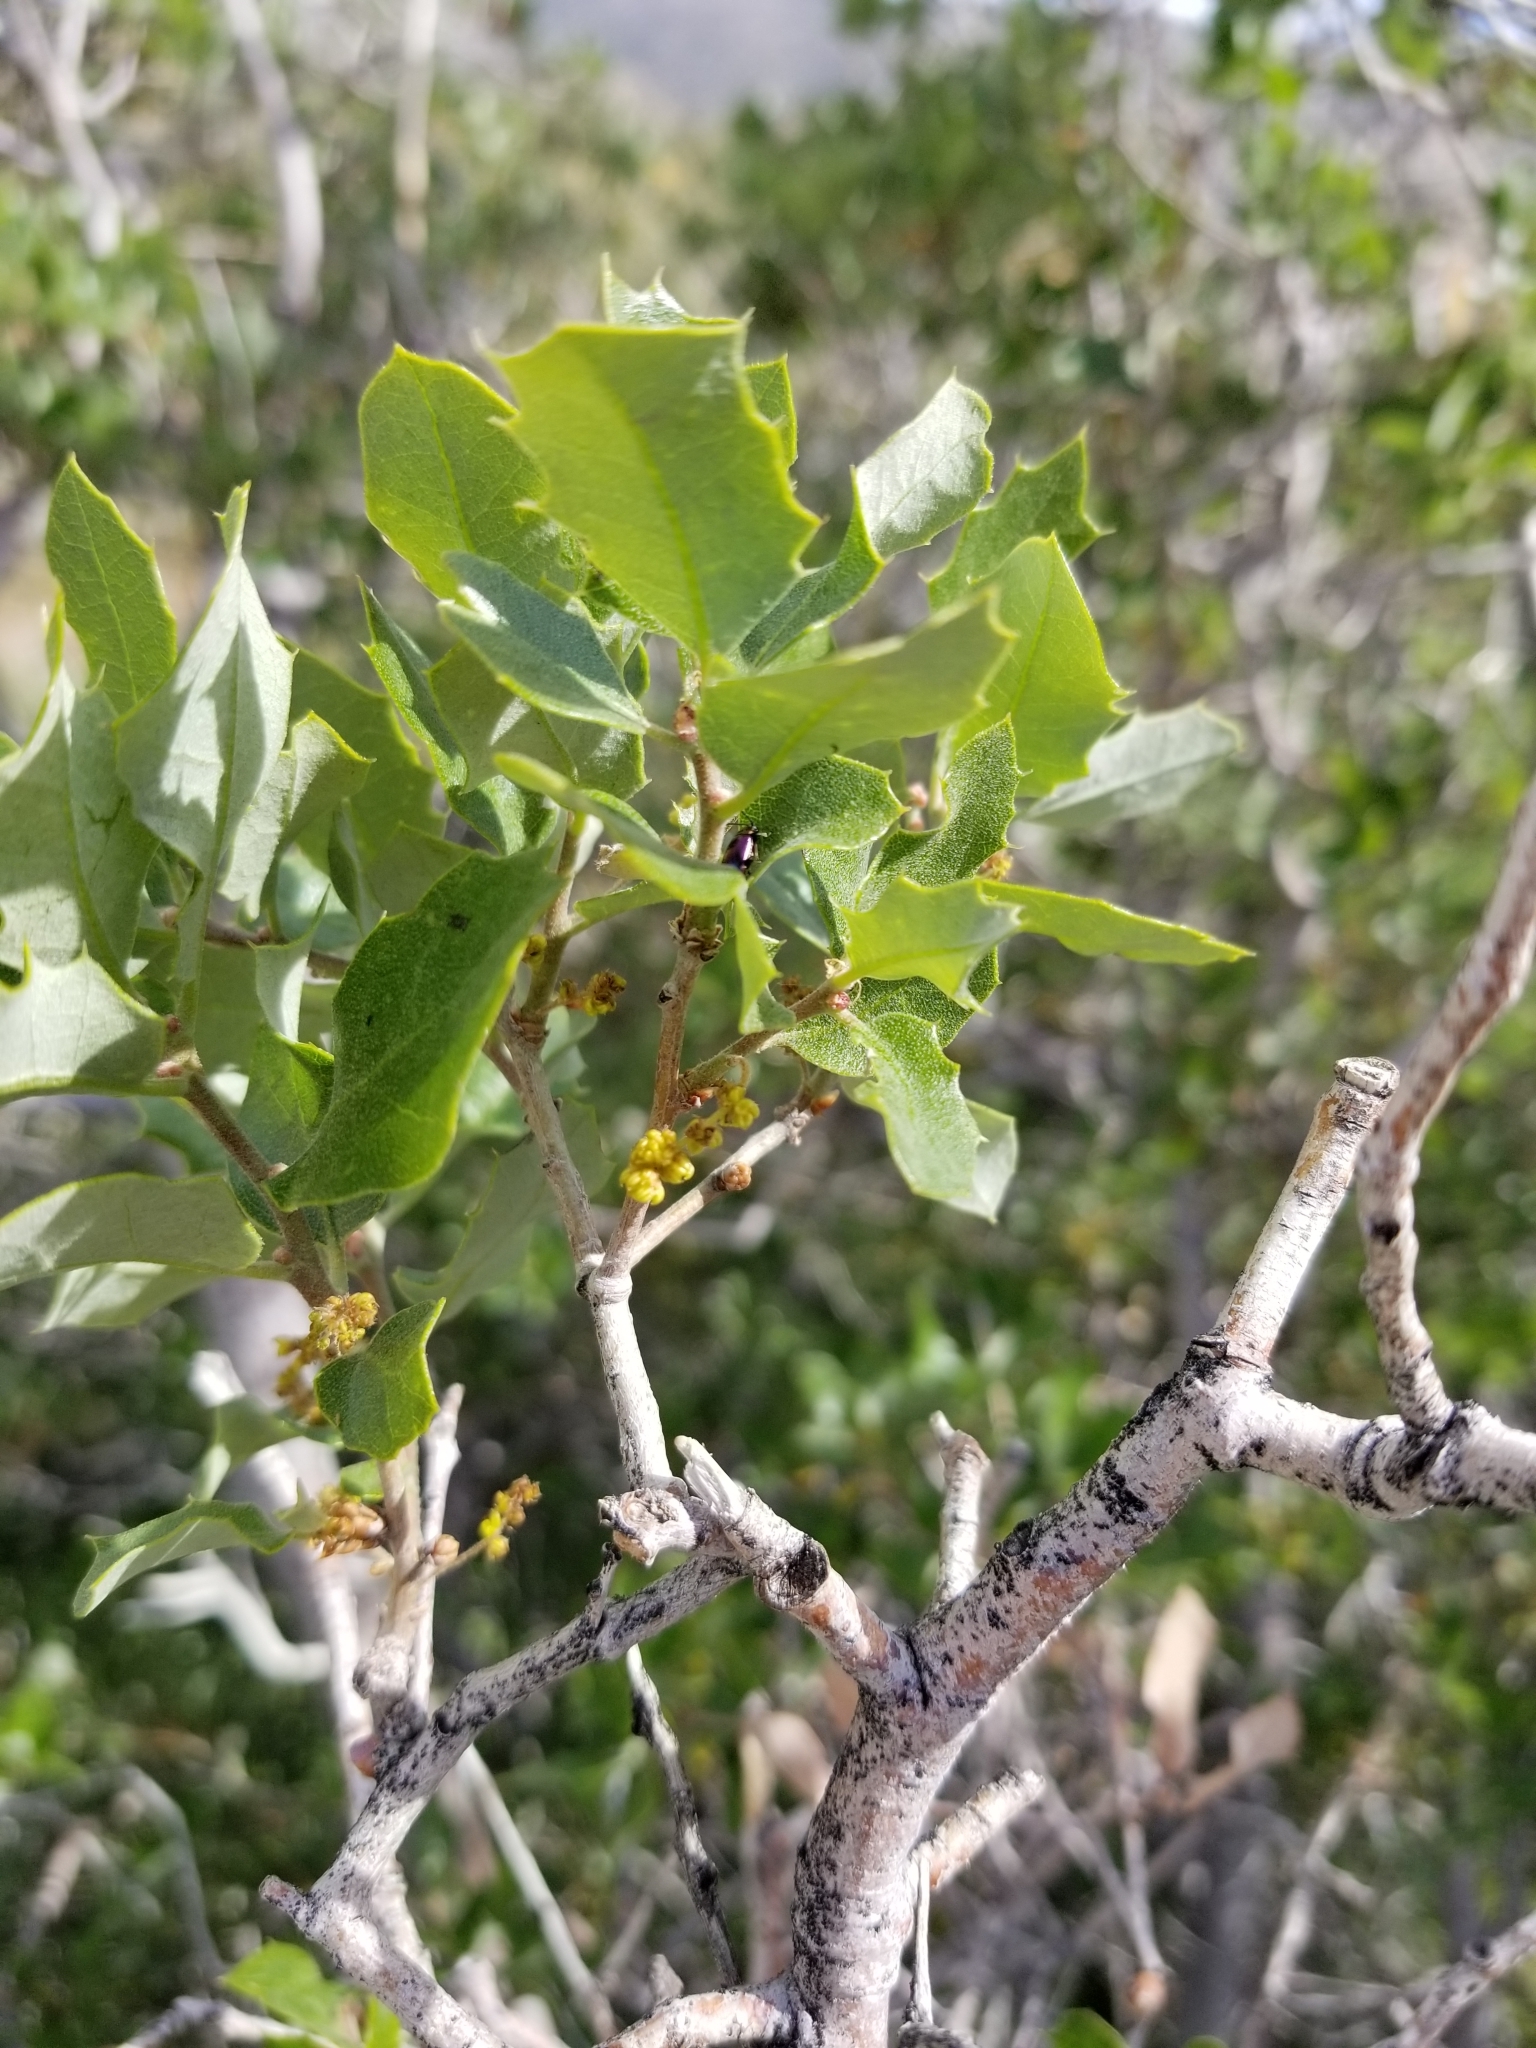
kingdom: Plantae
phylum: Tracheophyta
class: Magnoliopsida
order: Fagales
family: Fagaceae
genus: Quercus
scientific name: Quercus cornelius-mulleri
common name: Muller oak
